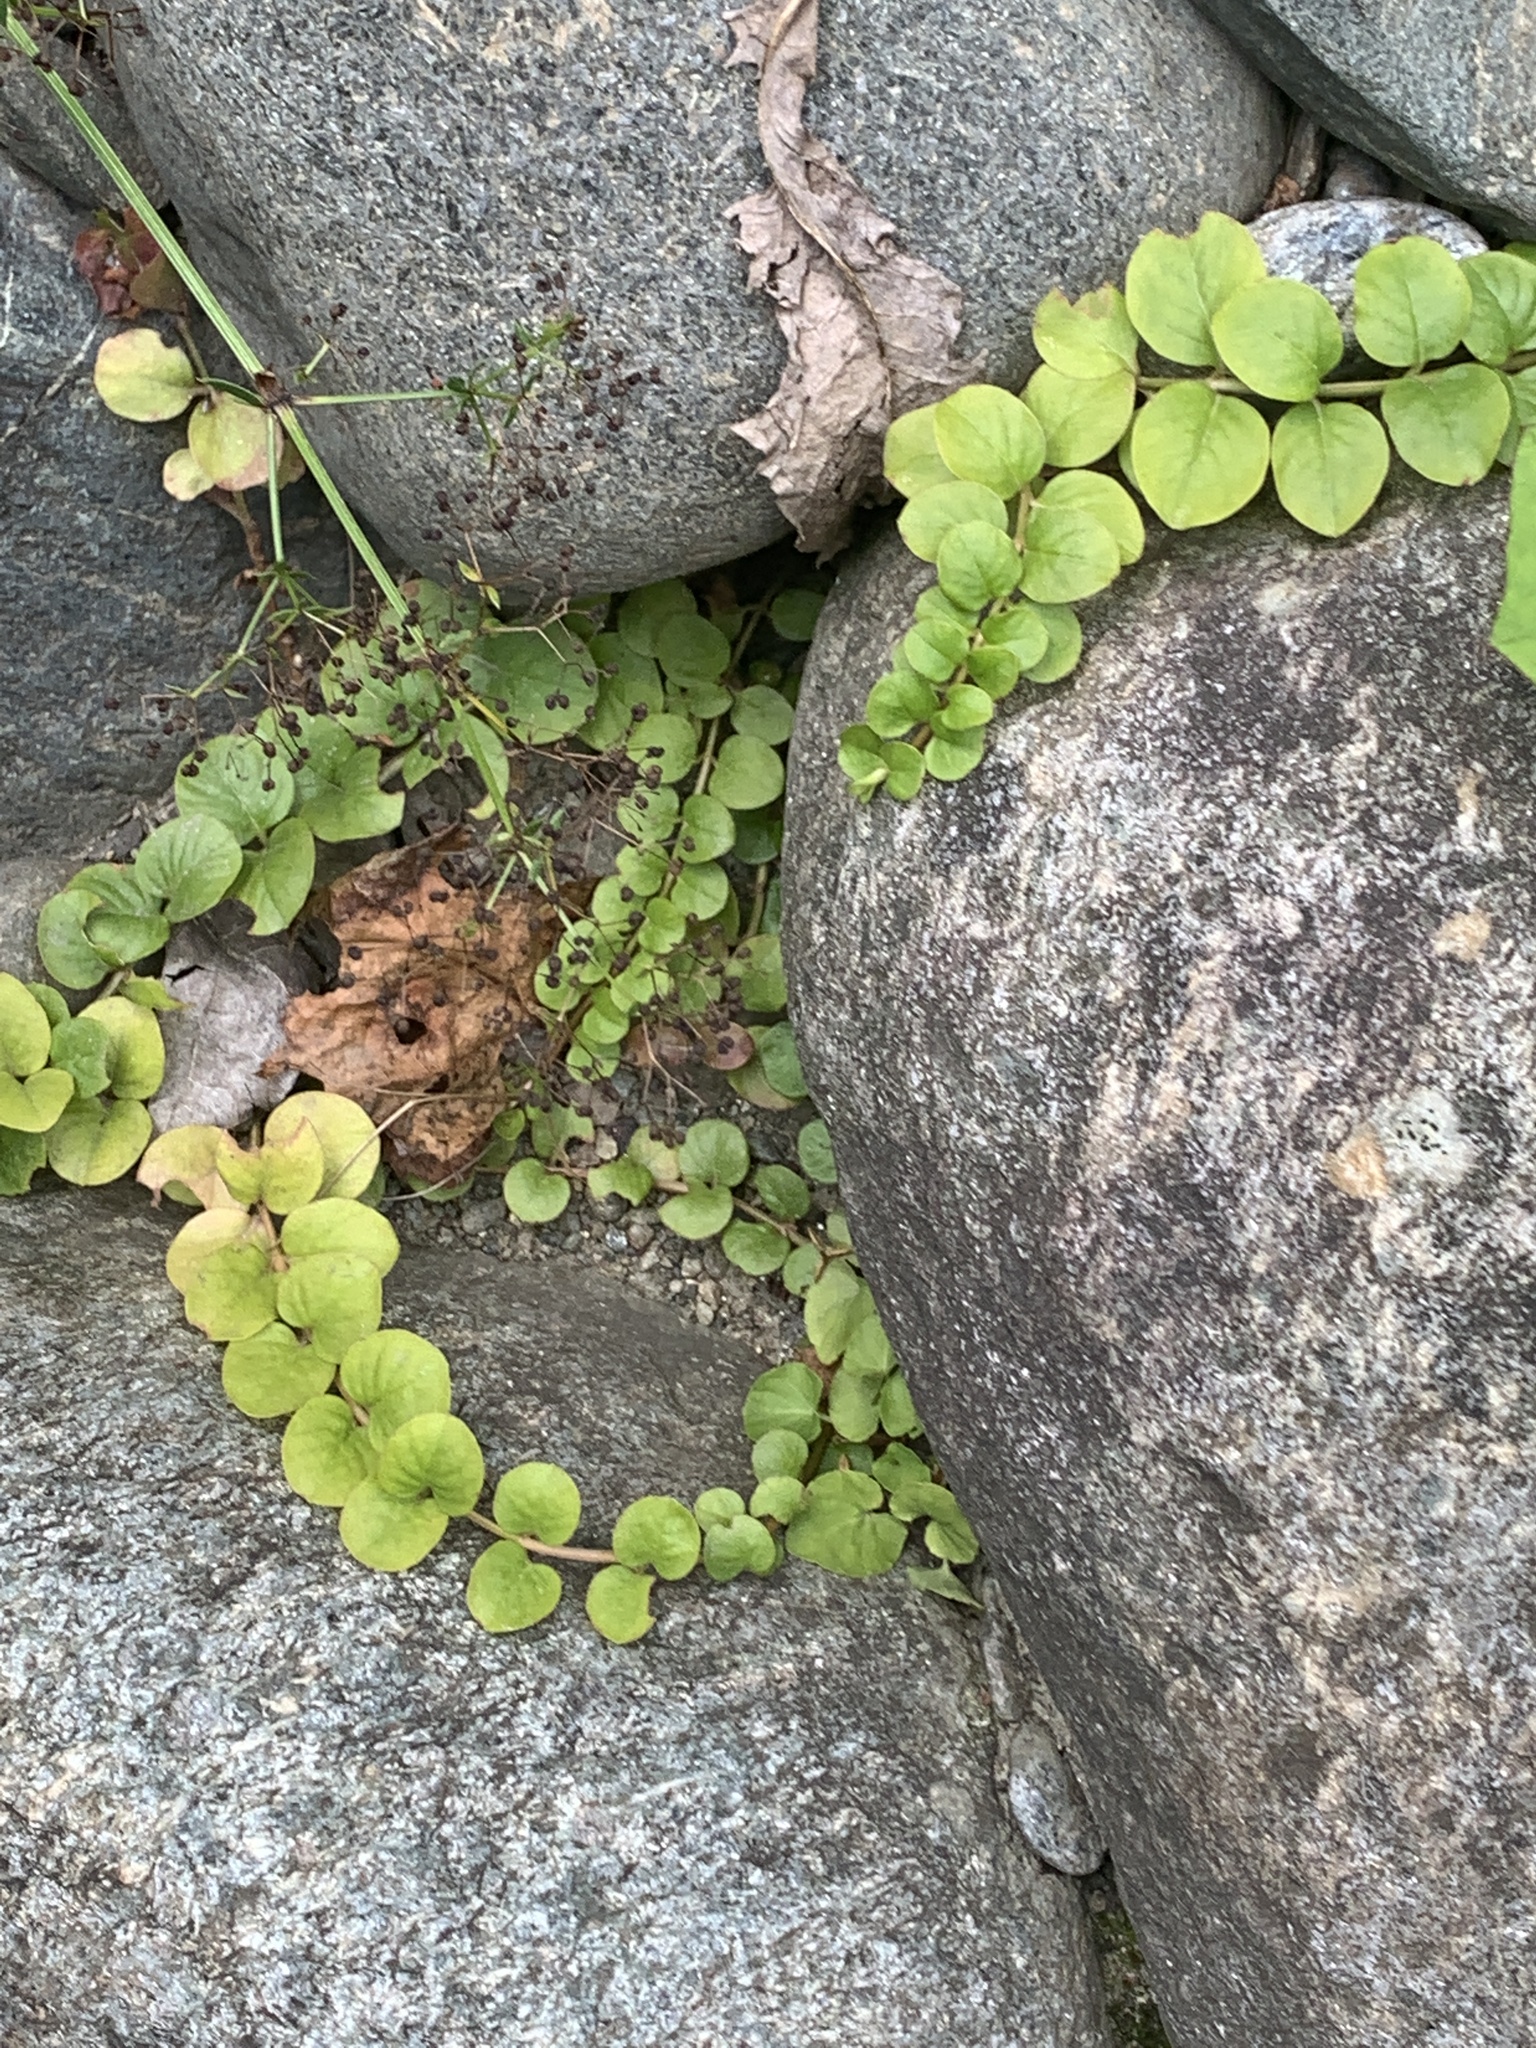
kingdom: Plantae
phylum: Tracheophyta
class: Magnoliopsida
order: Ericales
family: Primulaceae
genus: Lysimachia
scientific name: Lysimachia nummularia
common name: Moneywort
